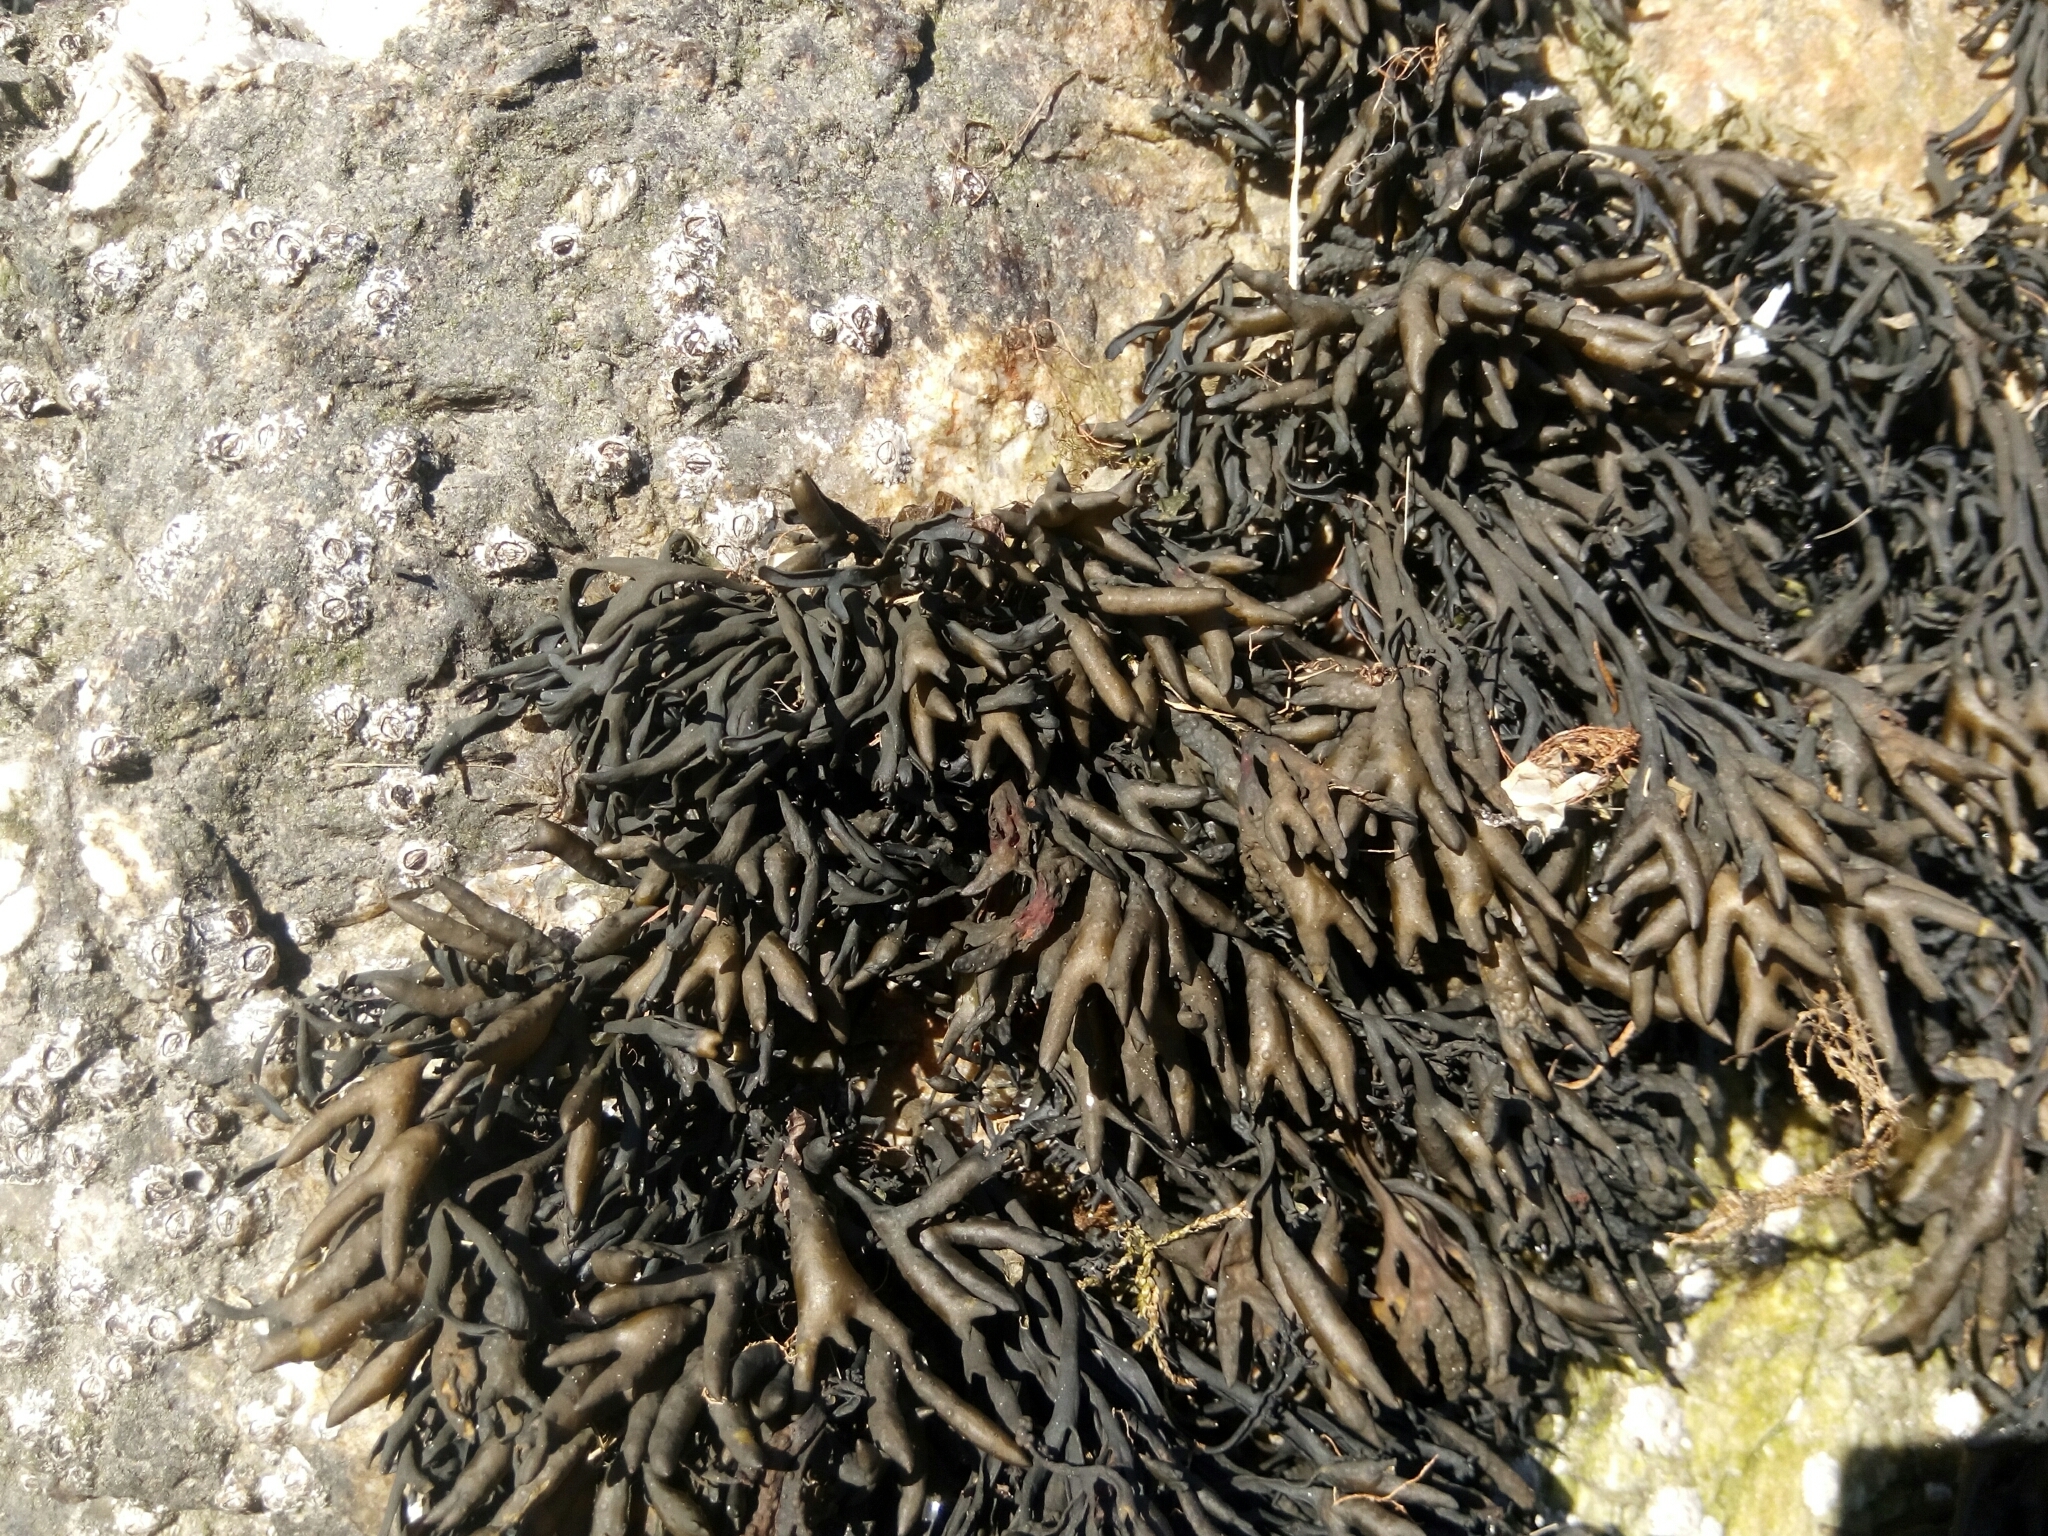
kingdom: Chromista
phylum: Ochrophyta
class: Phaeophyceae
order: Fucales
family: Fucaceae
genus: Pelvetia
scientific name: Pelvetia canaliculata
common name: Channelled wrack
